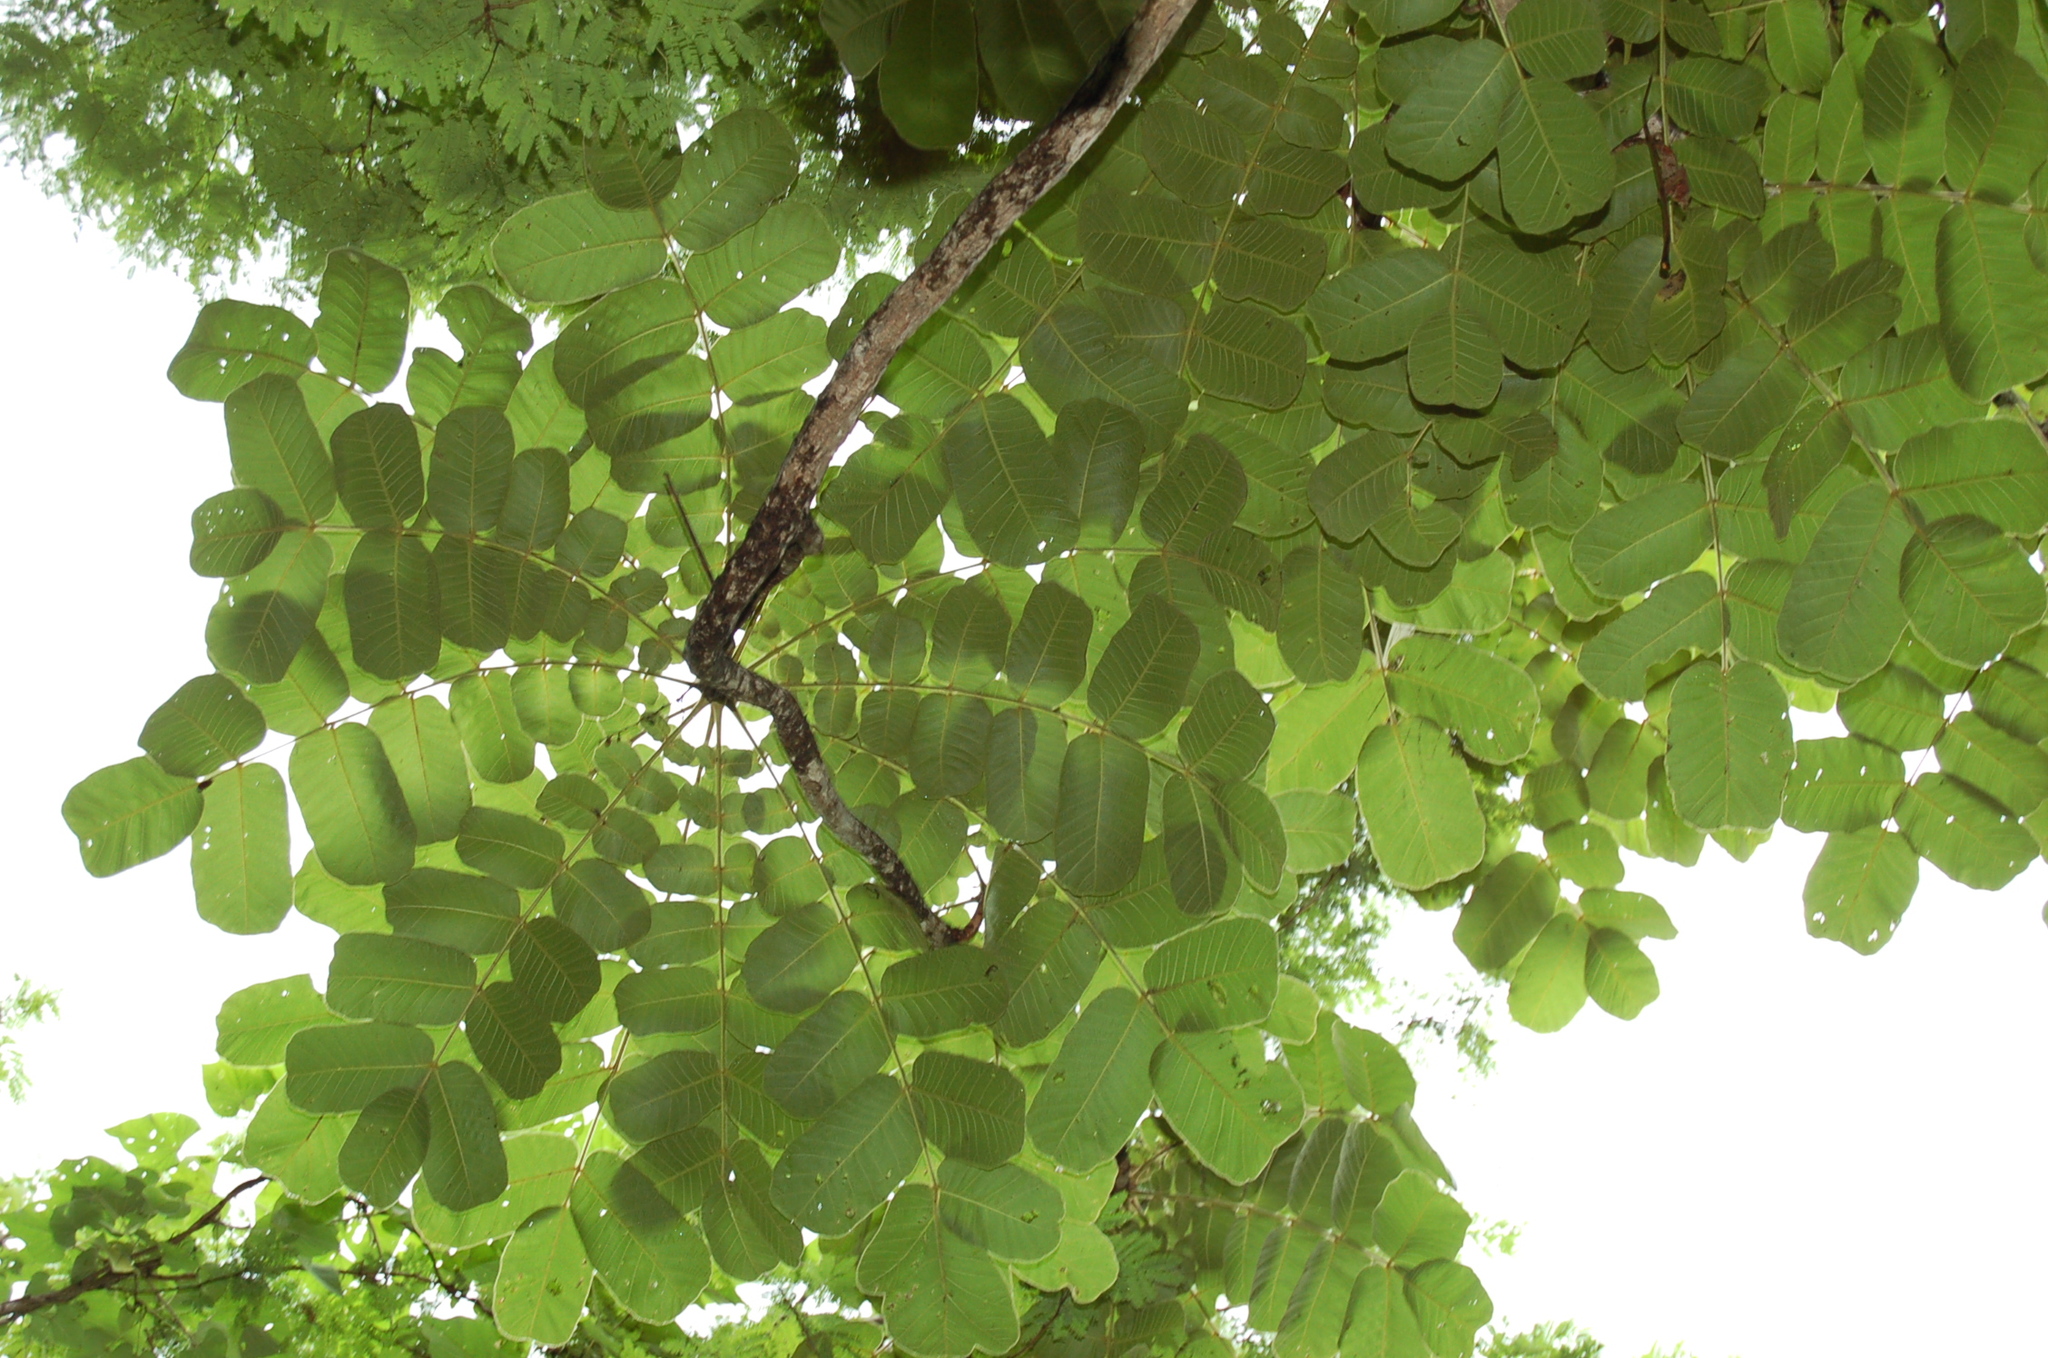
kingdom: Plantae
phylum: Tracheophyta
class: Magnoliopsida
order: Sapindales
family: Anacardiaceae
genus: Comocladia
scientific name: Comocladia guatemalensis
